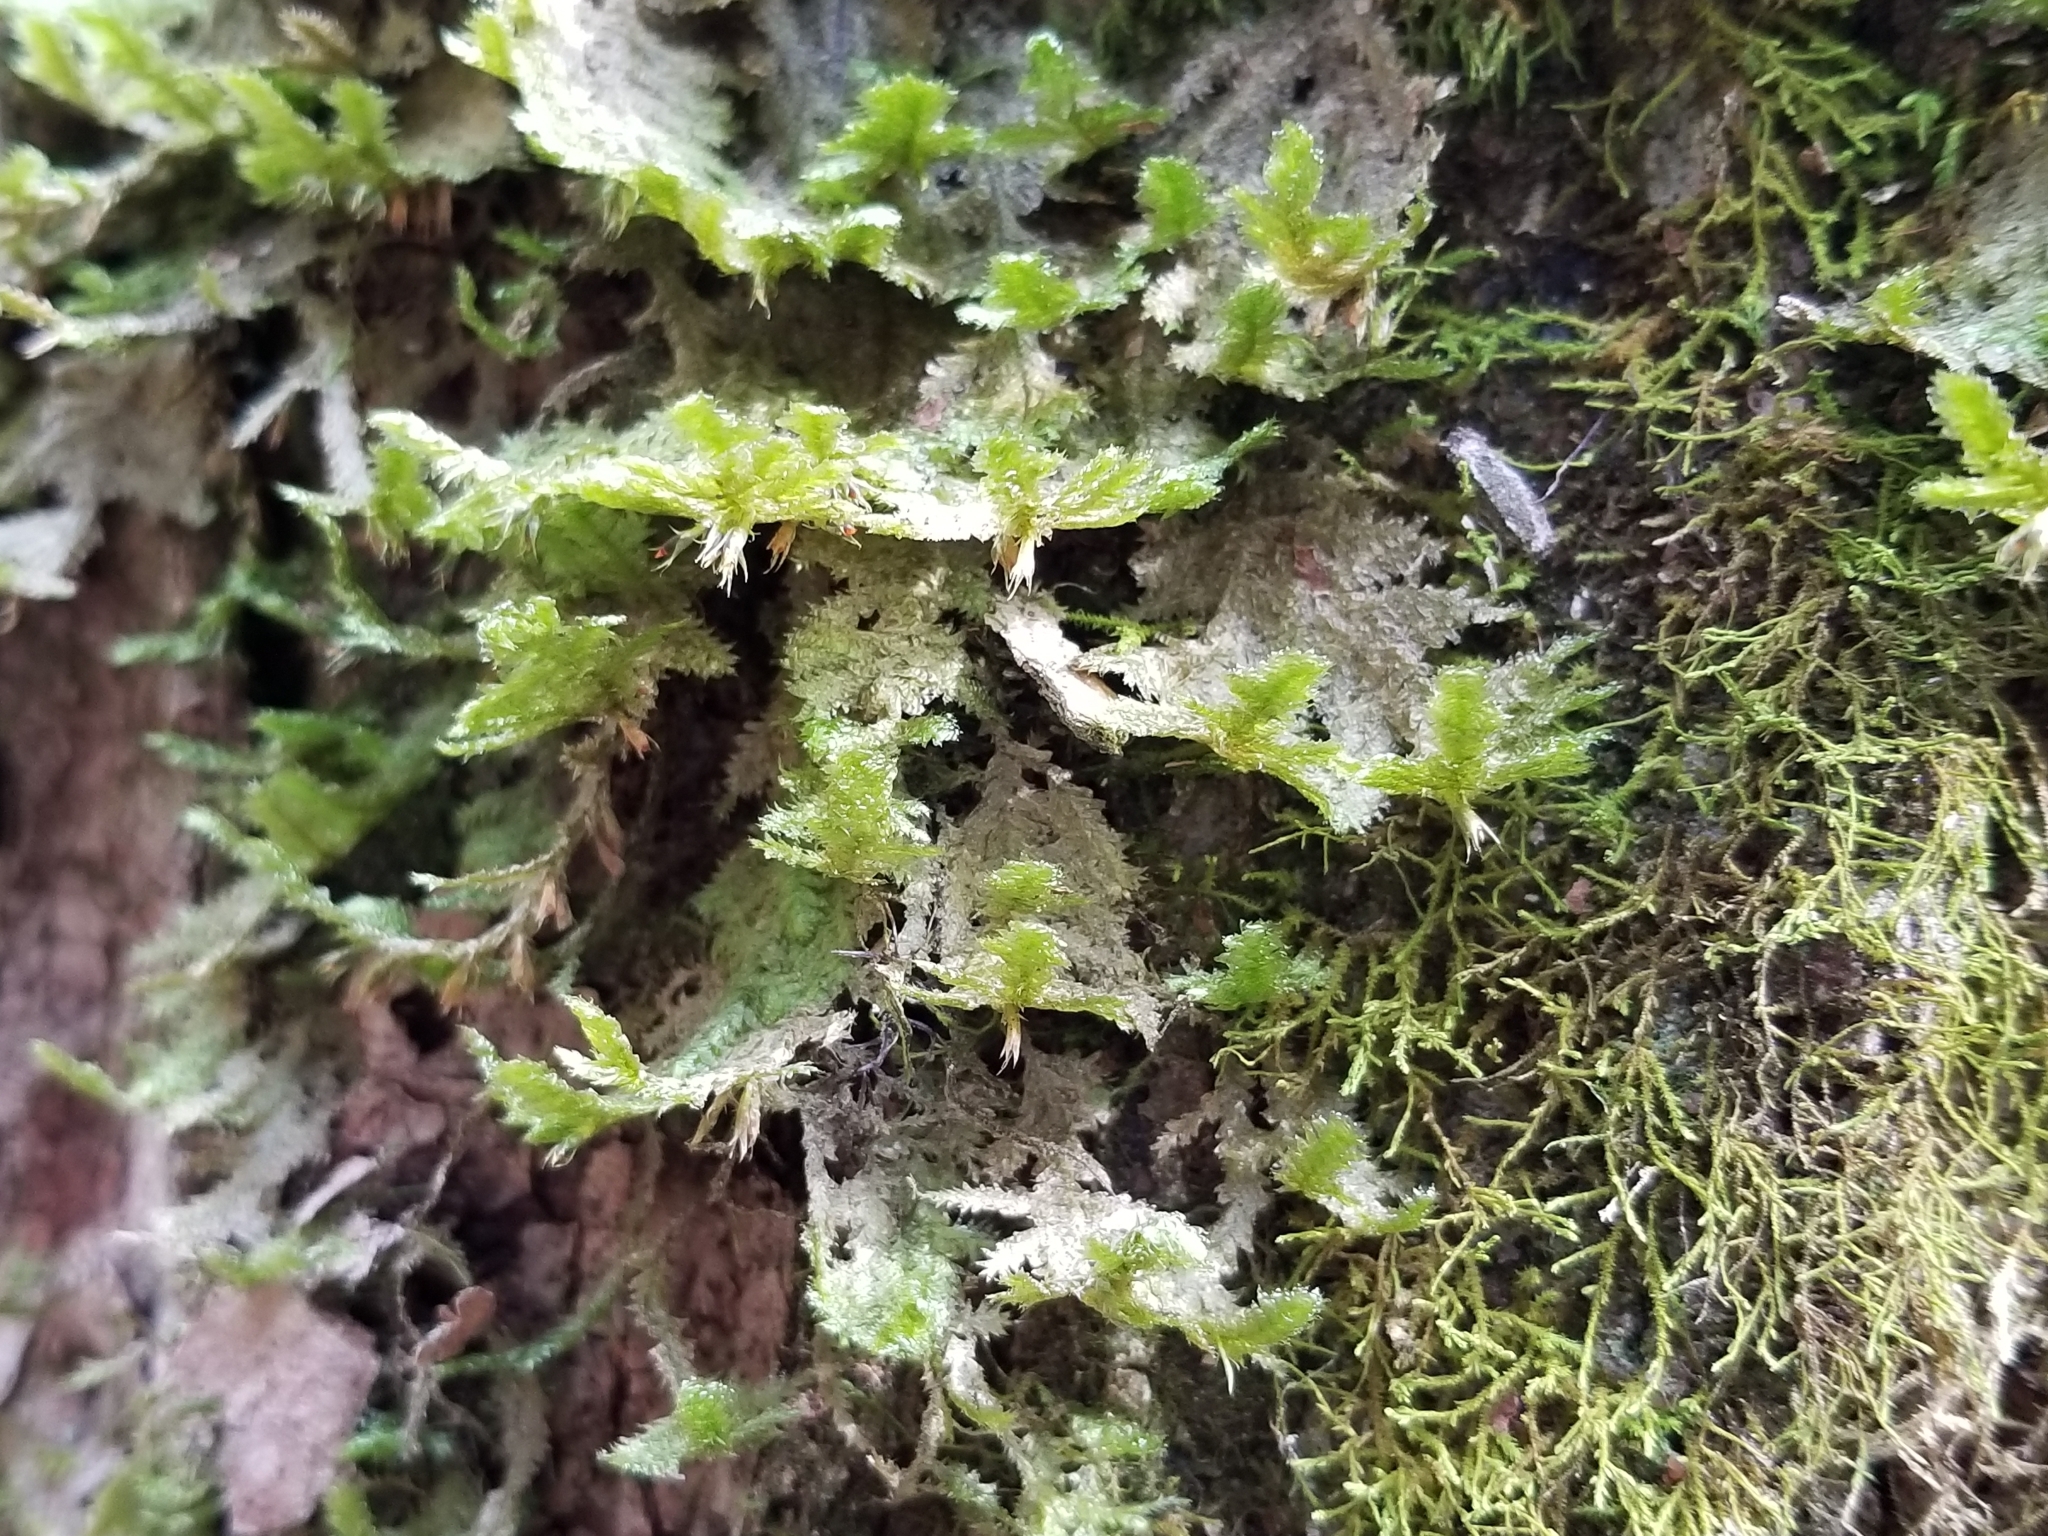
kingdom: Plantae
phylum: Bryophyta
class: Bryopsida
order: Hypnales
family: Neckeraceae
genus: Neckera
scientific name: Neckera pennata
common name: Feathery neckera
